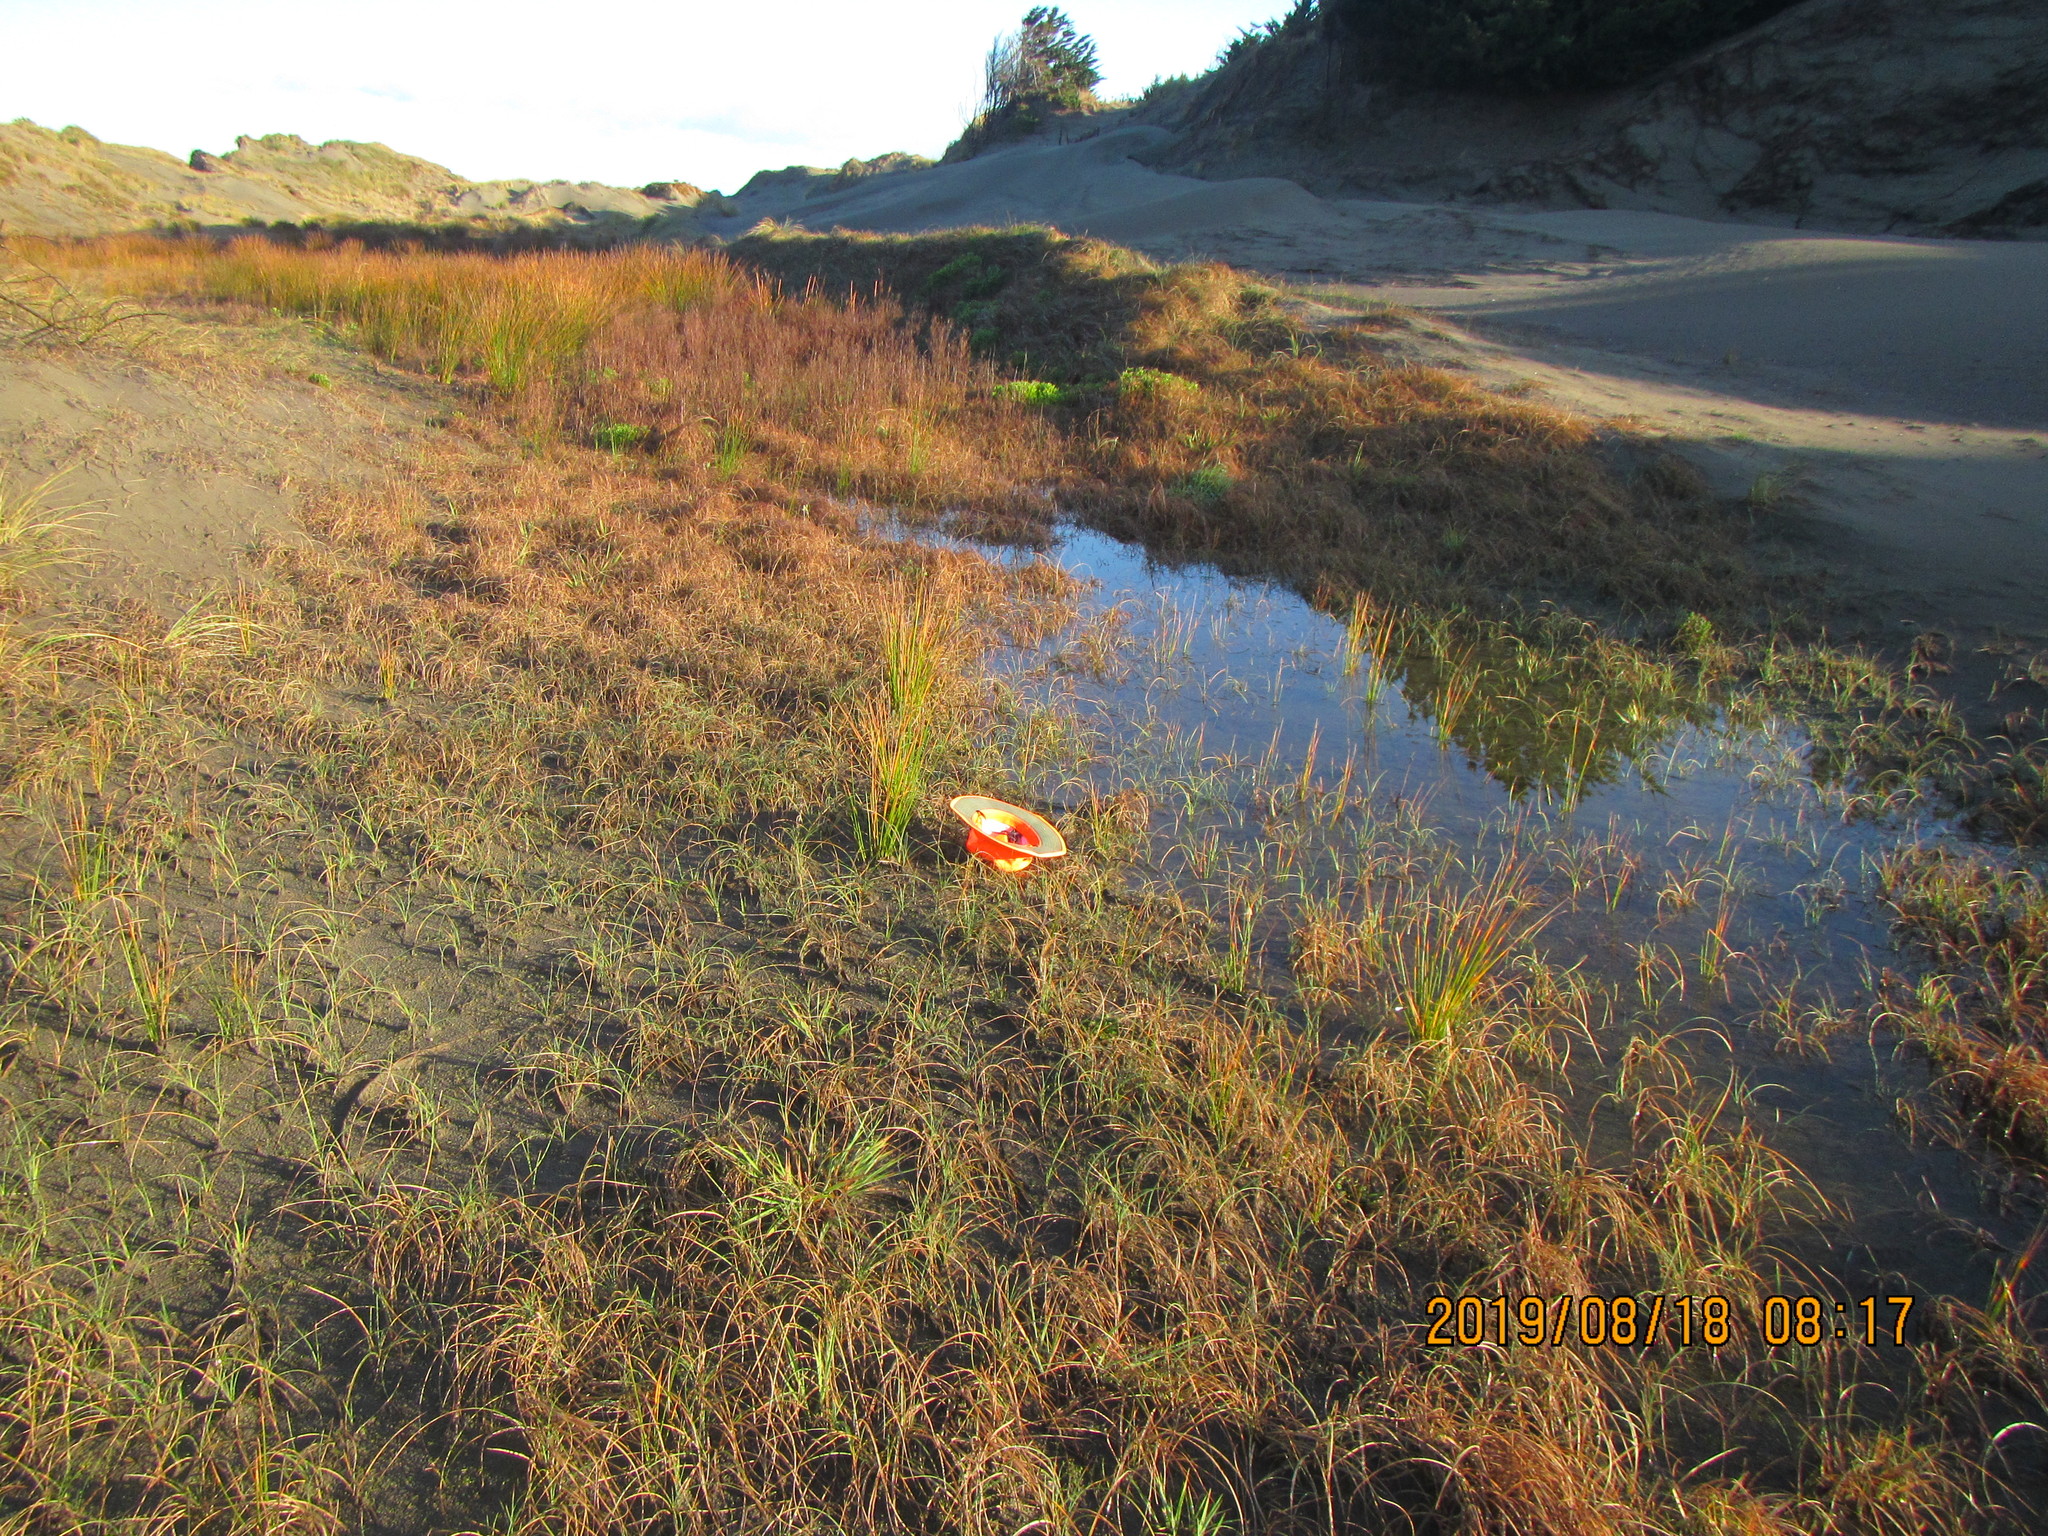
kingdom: Plantae
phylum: Tracheophyta
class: Magnoliopsida
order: Apiales
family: Apiaceae
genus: Lilaeopsis
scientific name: Lilaeopsis novae-zelandiae
